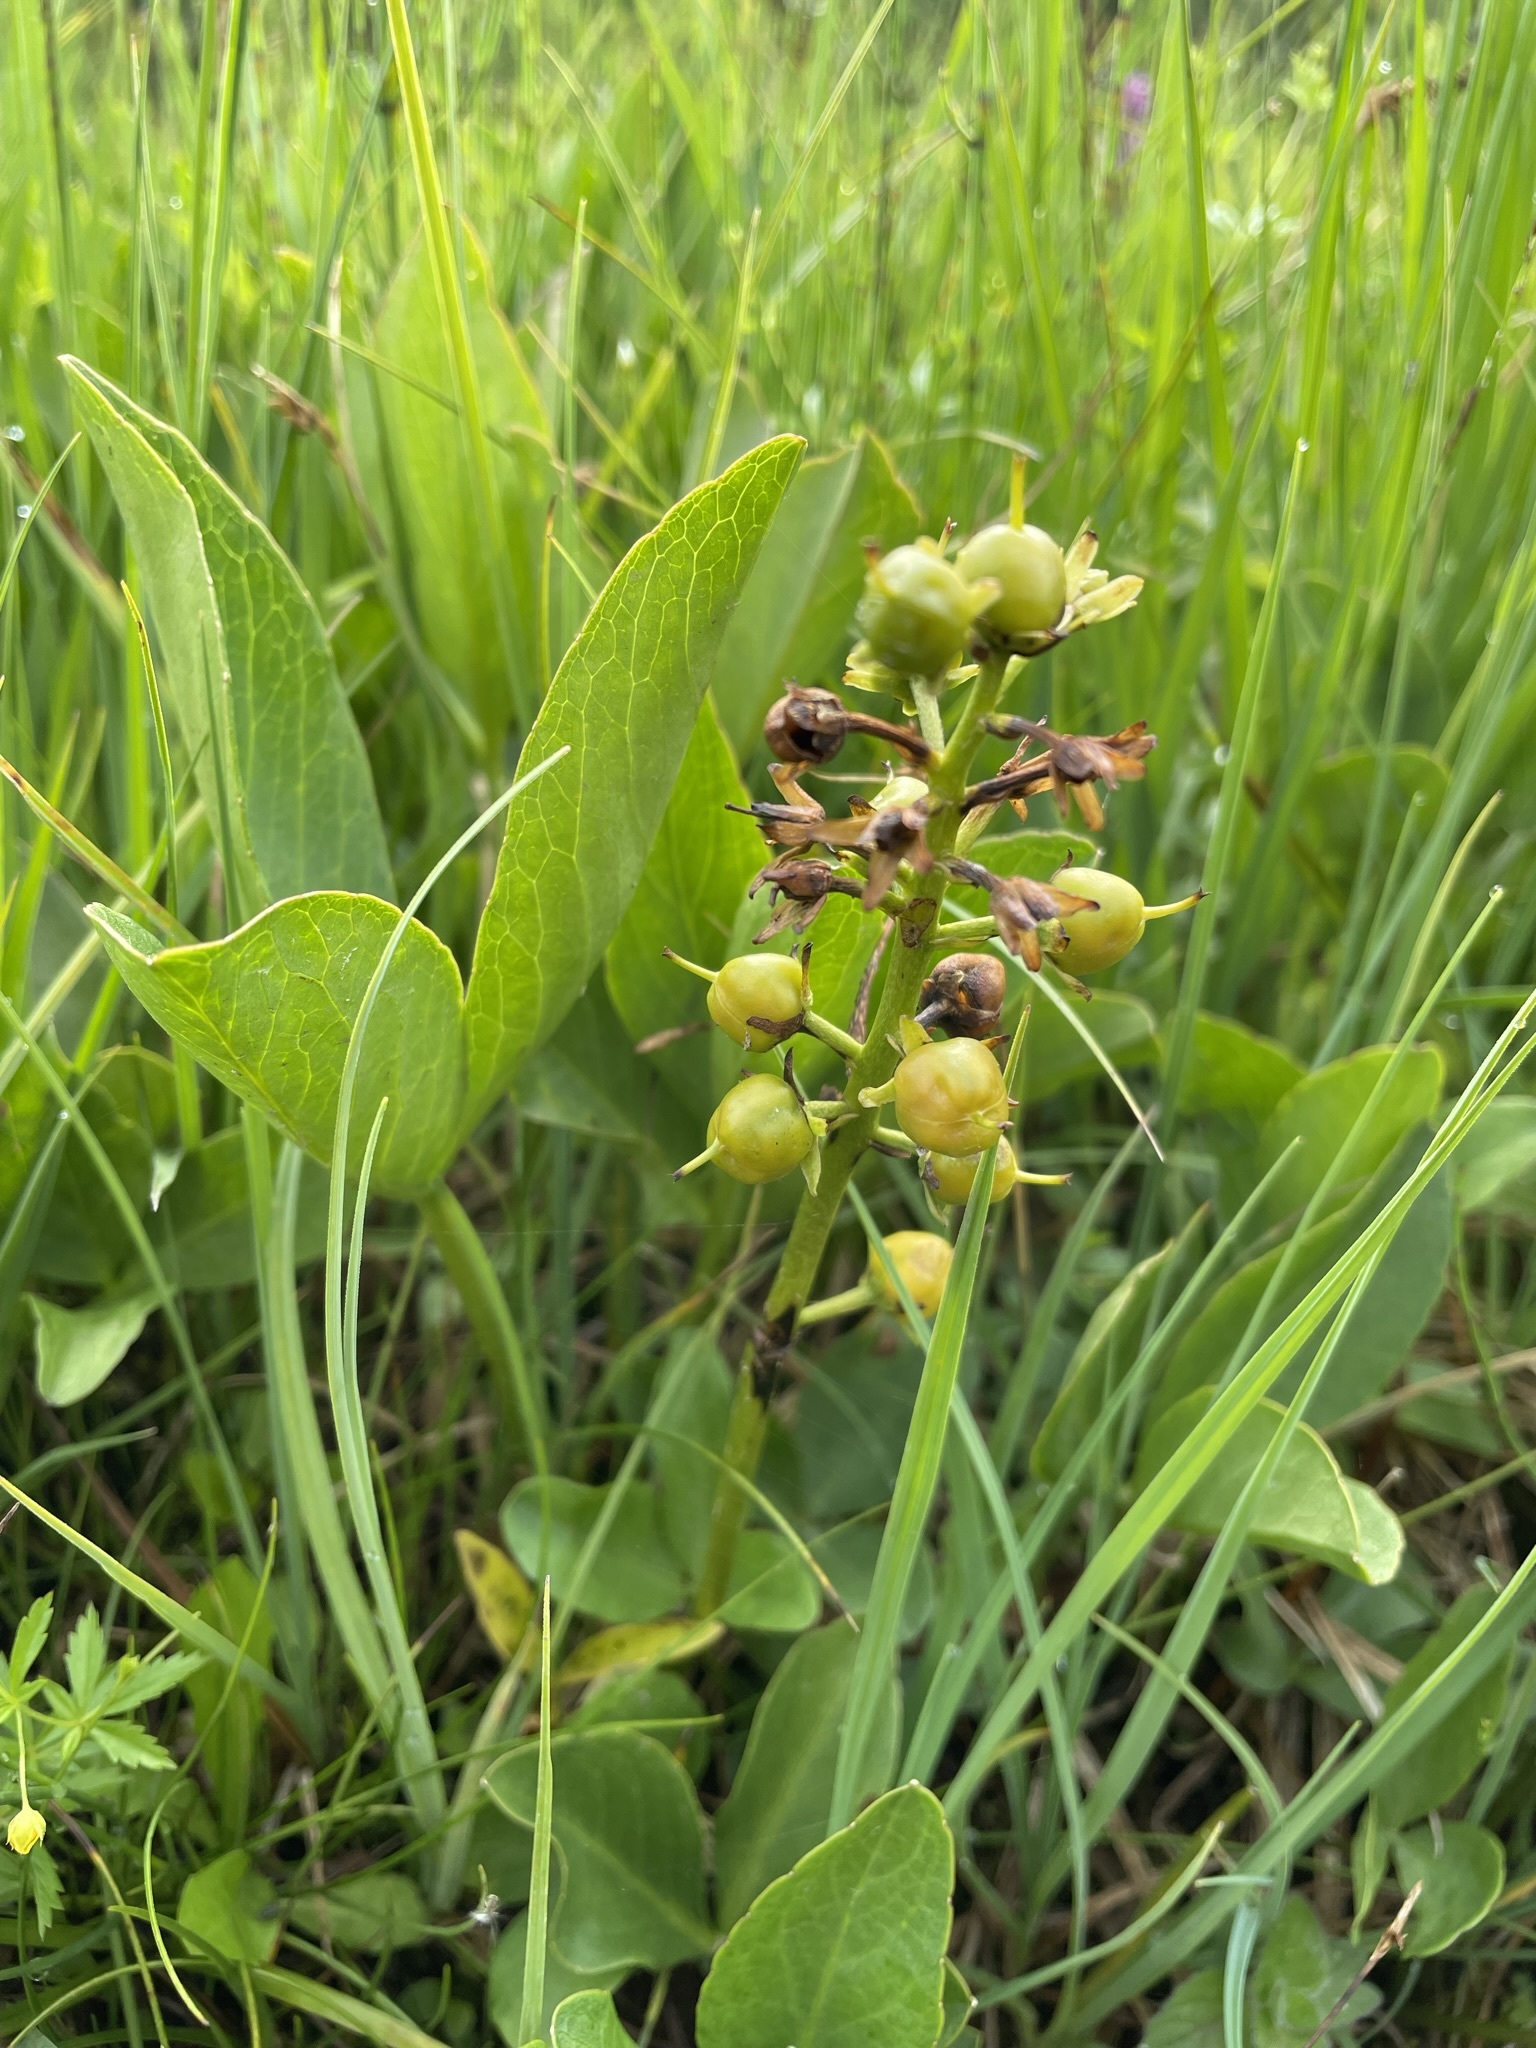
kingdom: Plantae
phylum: Tracheophyta
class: Magnoliopsida
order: Asterales
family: Menyanthaceae
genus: Menyanthes
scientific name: Menyanthes trifoliata
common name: Bogbean
